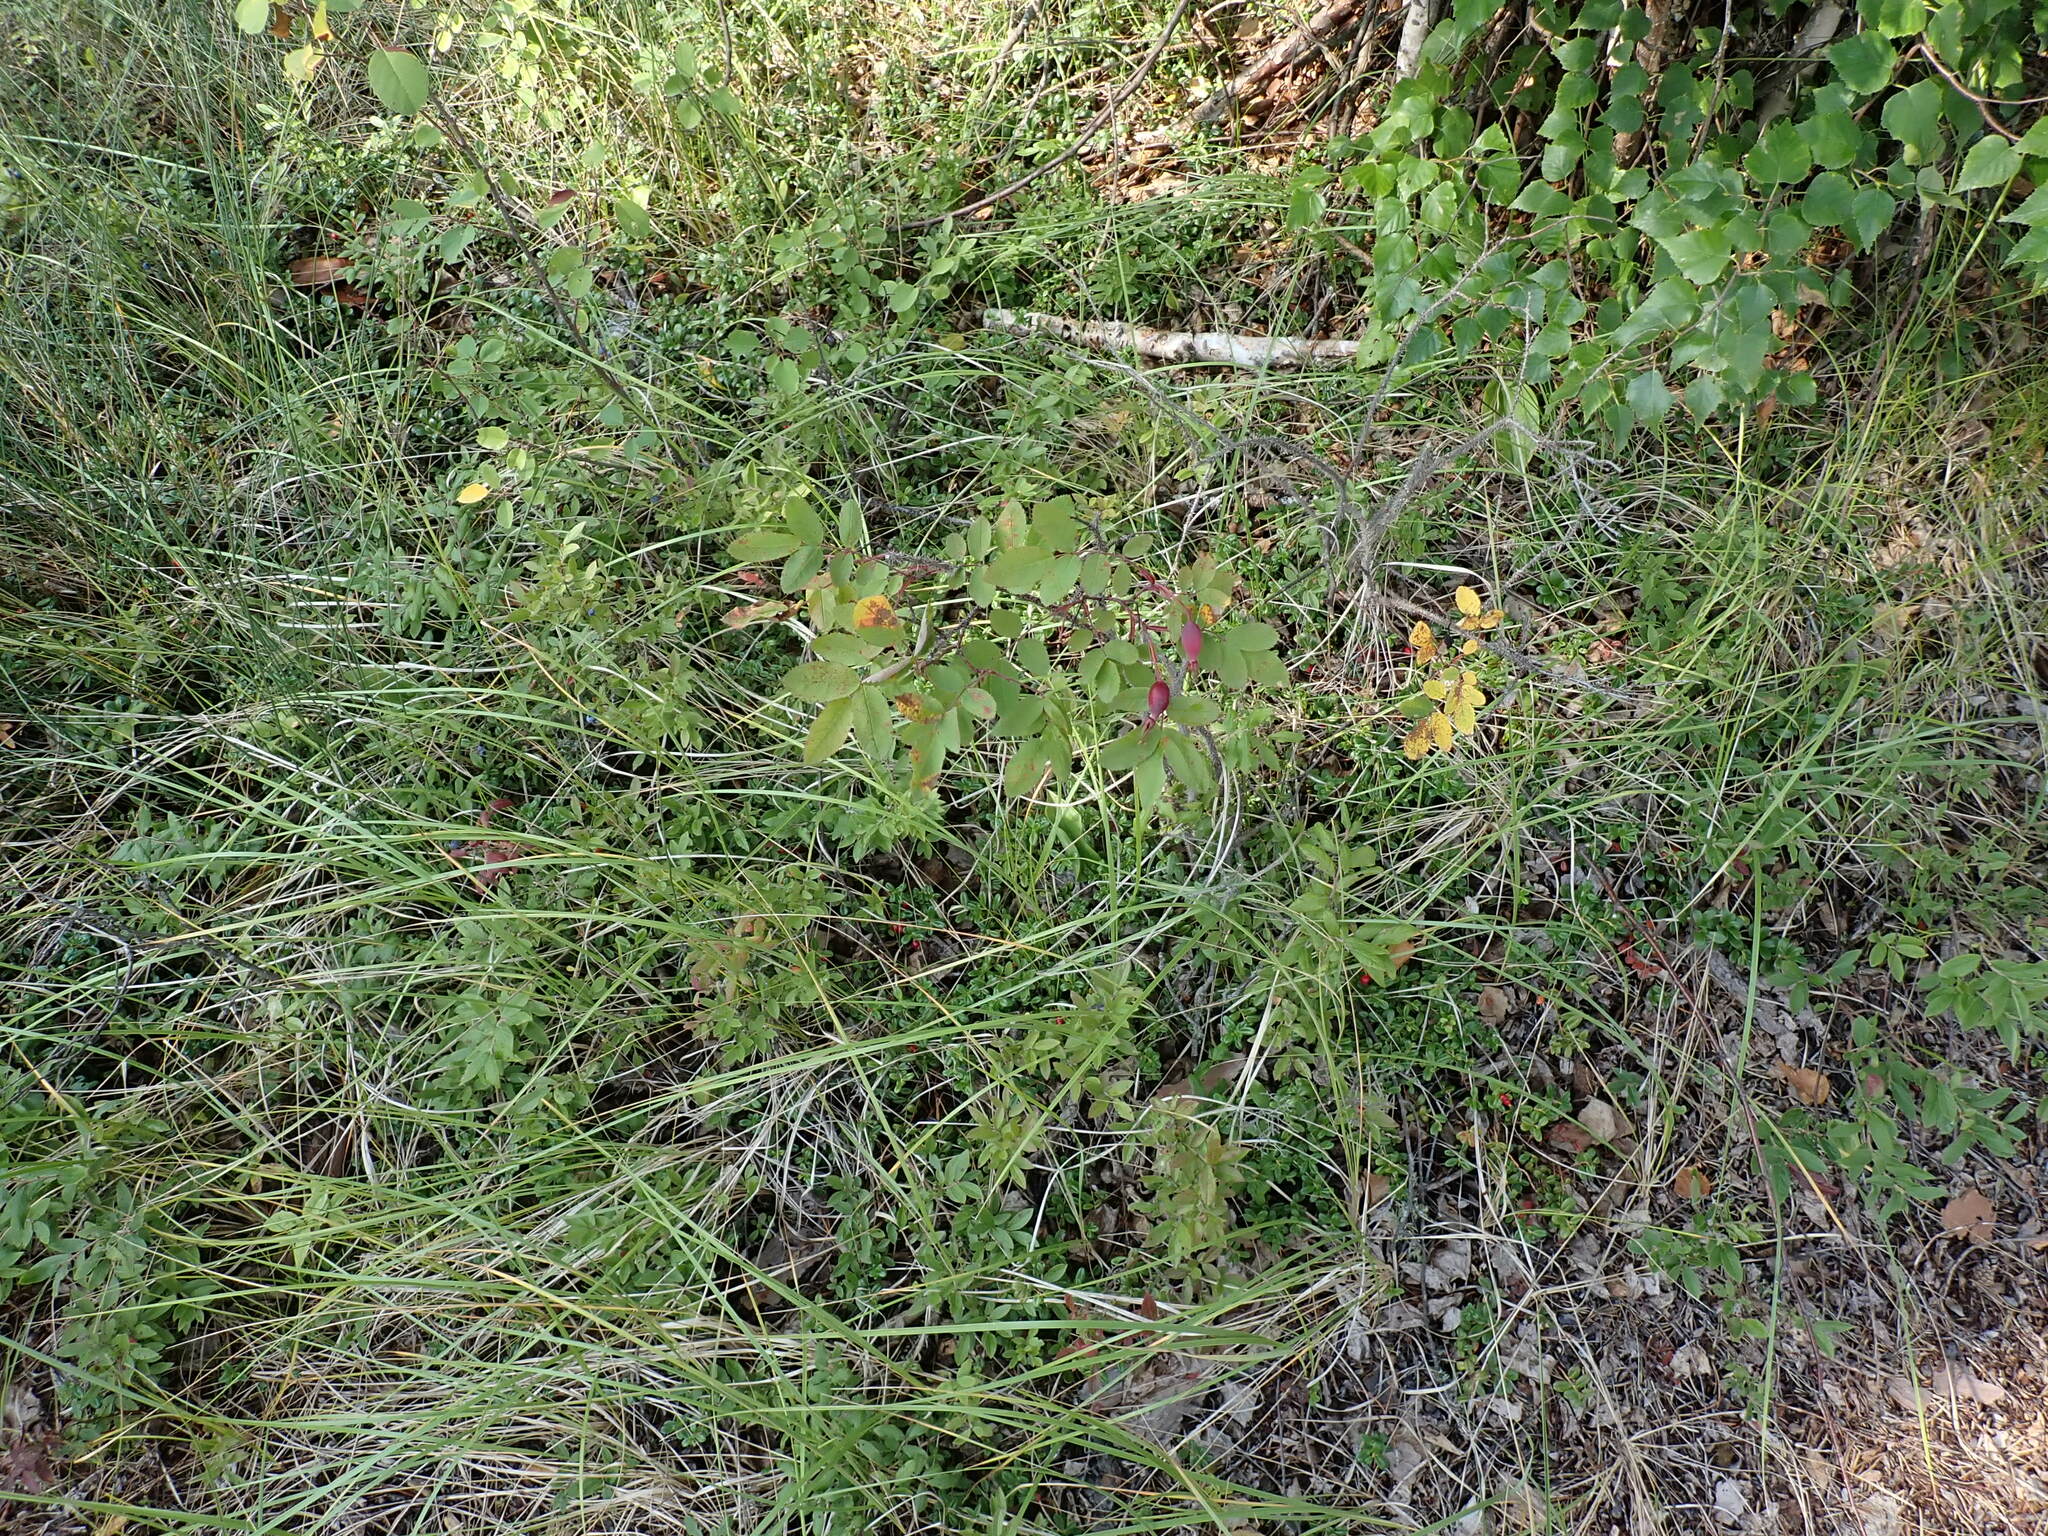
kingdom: Plantae
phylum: Tracheophyta
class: Magnoliopsida
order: Rosales
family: Rosaceae
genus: Rosa
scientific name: Rosa acicularis
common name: Prickly rose
